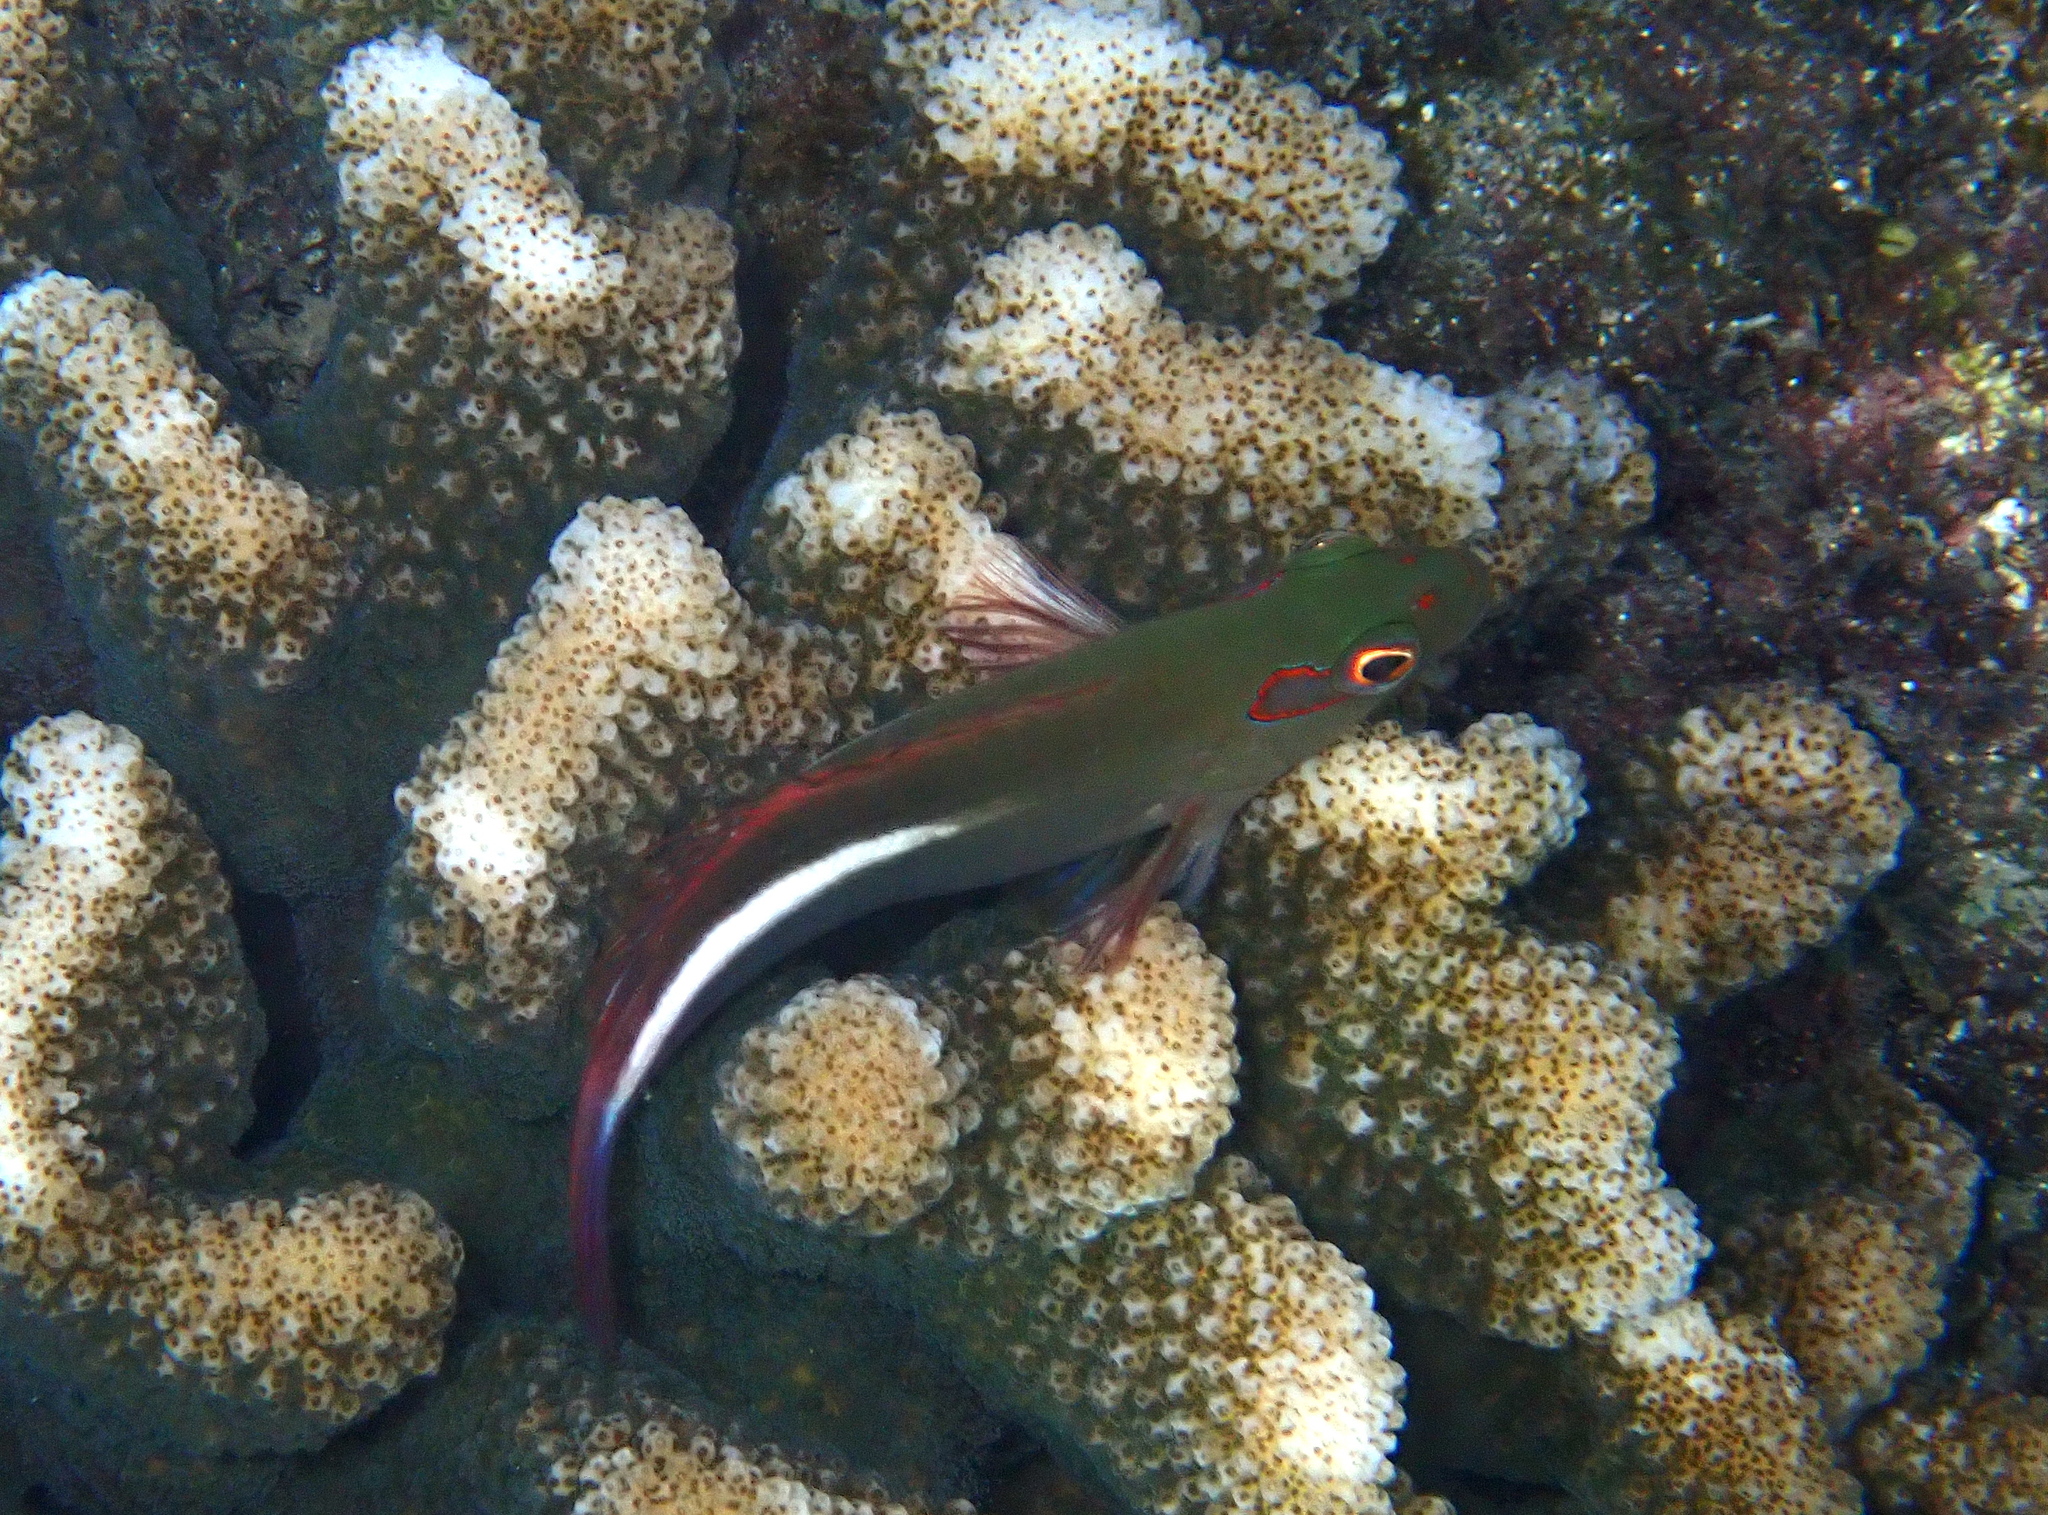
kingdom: Animalia
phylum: Chordata
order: Perciformes
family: Cirrhitidae
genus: Paracirrhites
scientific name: Paracirrhites arcatus
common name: Arc-eye hawkfish
